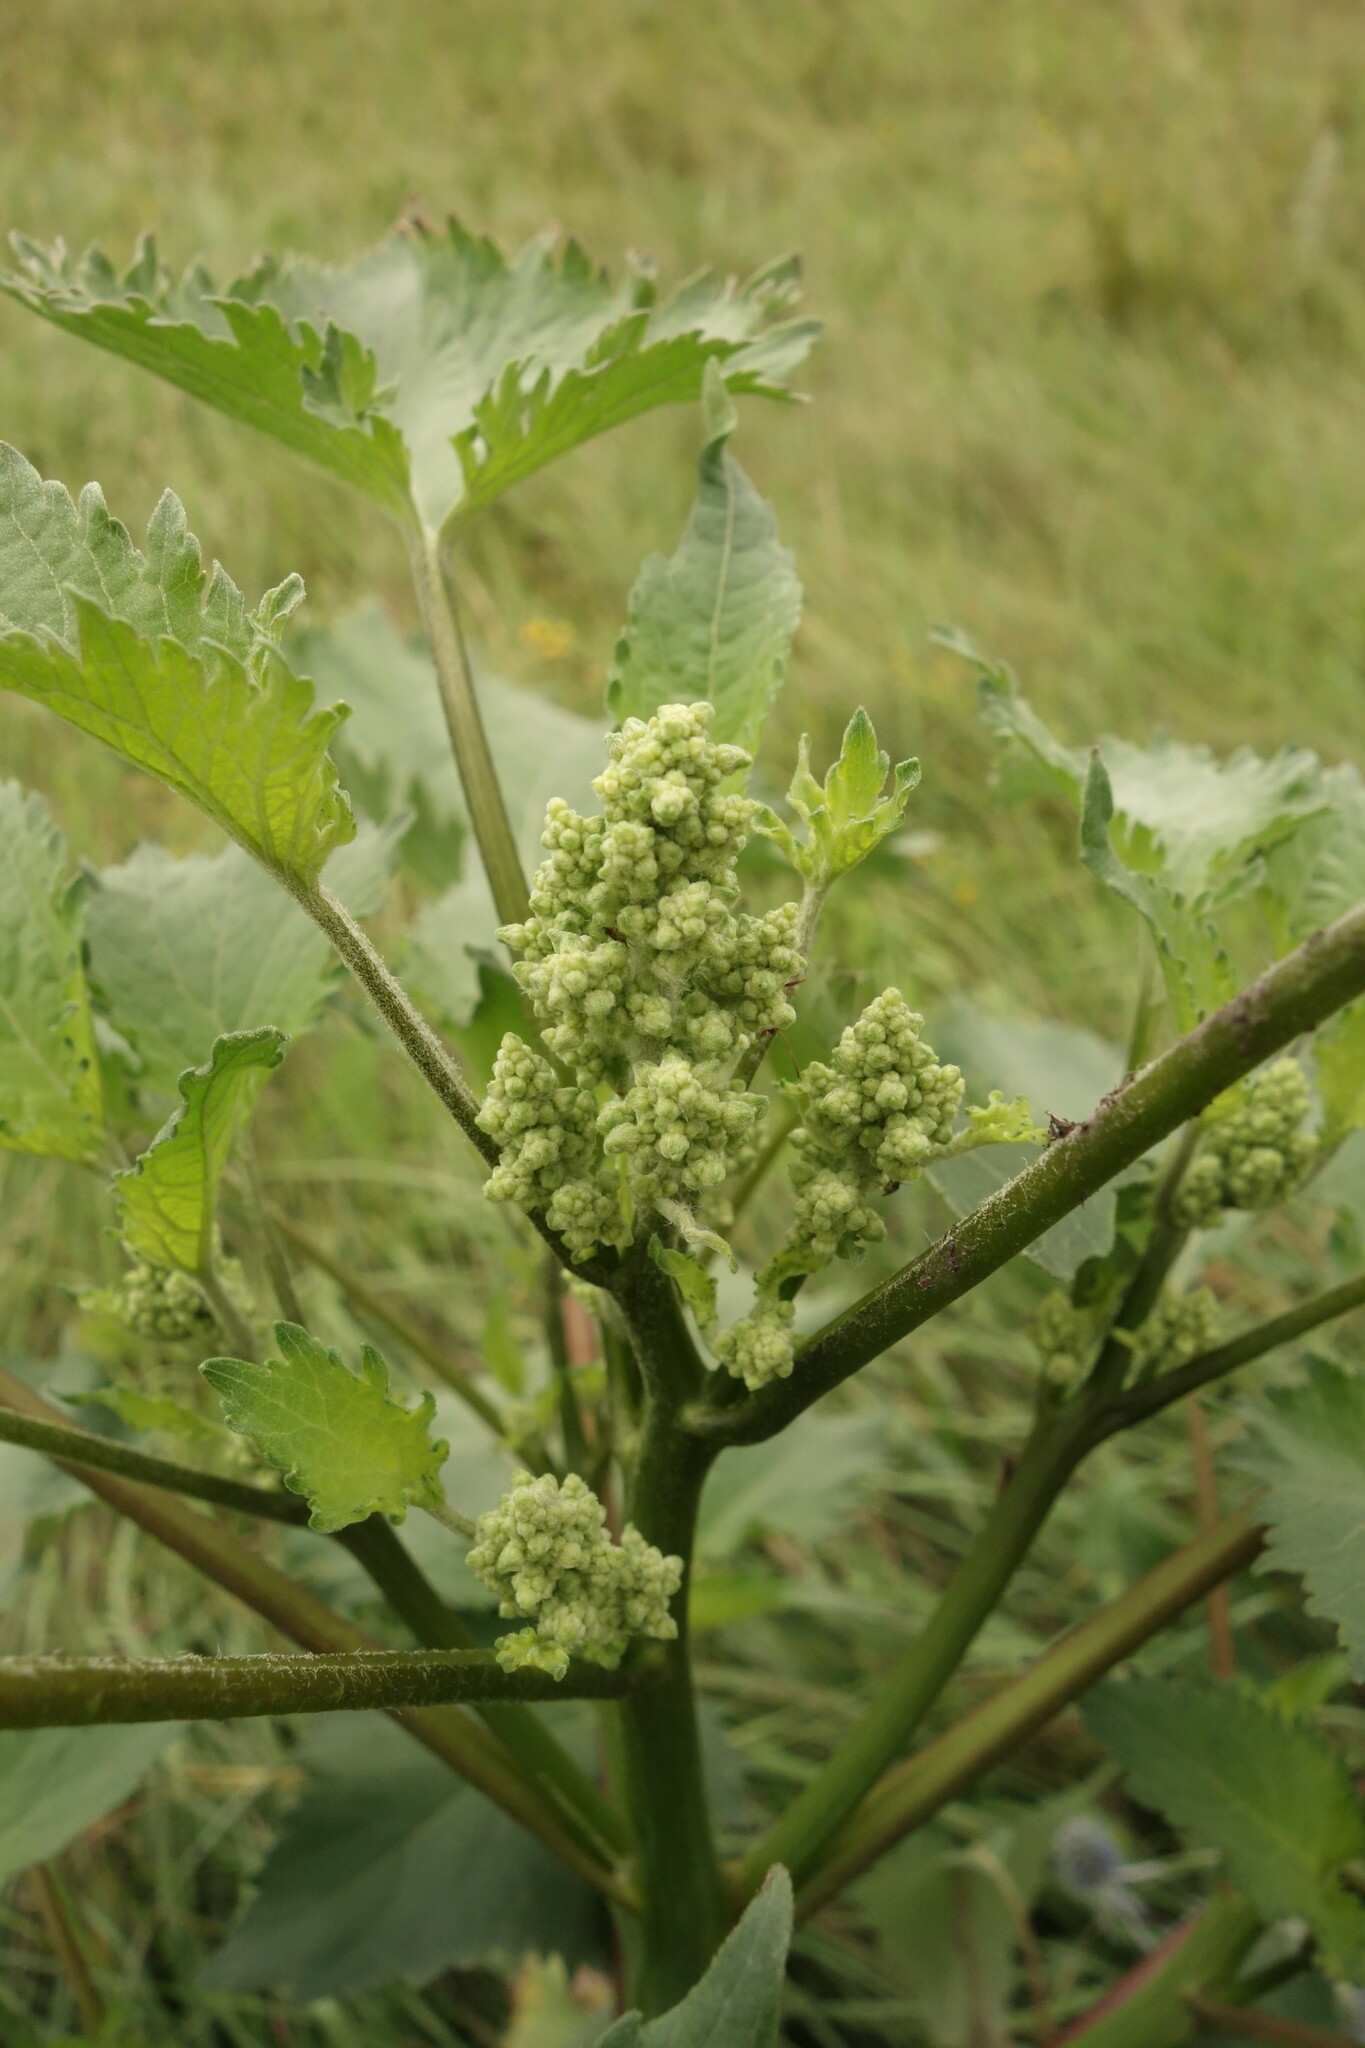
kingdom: Plantae
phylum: Tracheophyta
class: Magnoliopsida
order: Asterales
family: Asteraceae
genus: Cyclachaena
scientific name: Cyclachaena xanthiifolia
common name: Giant sumpweed
